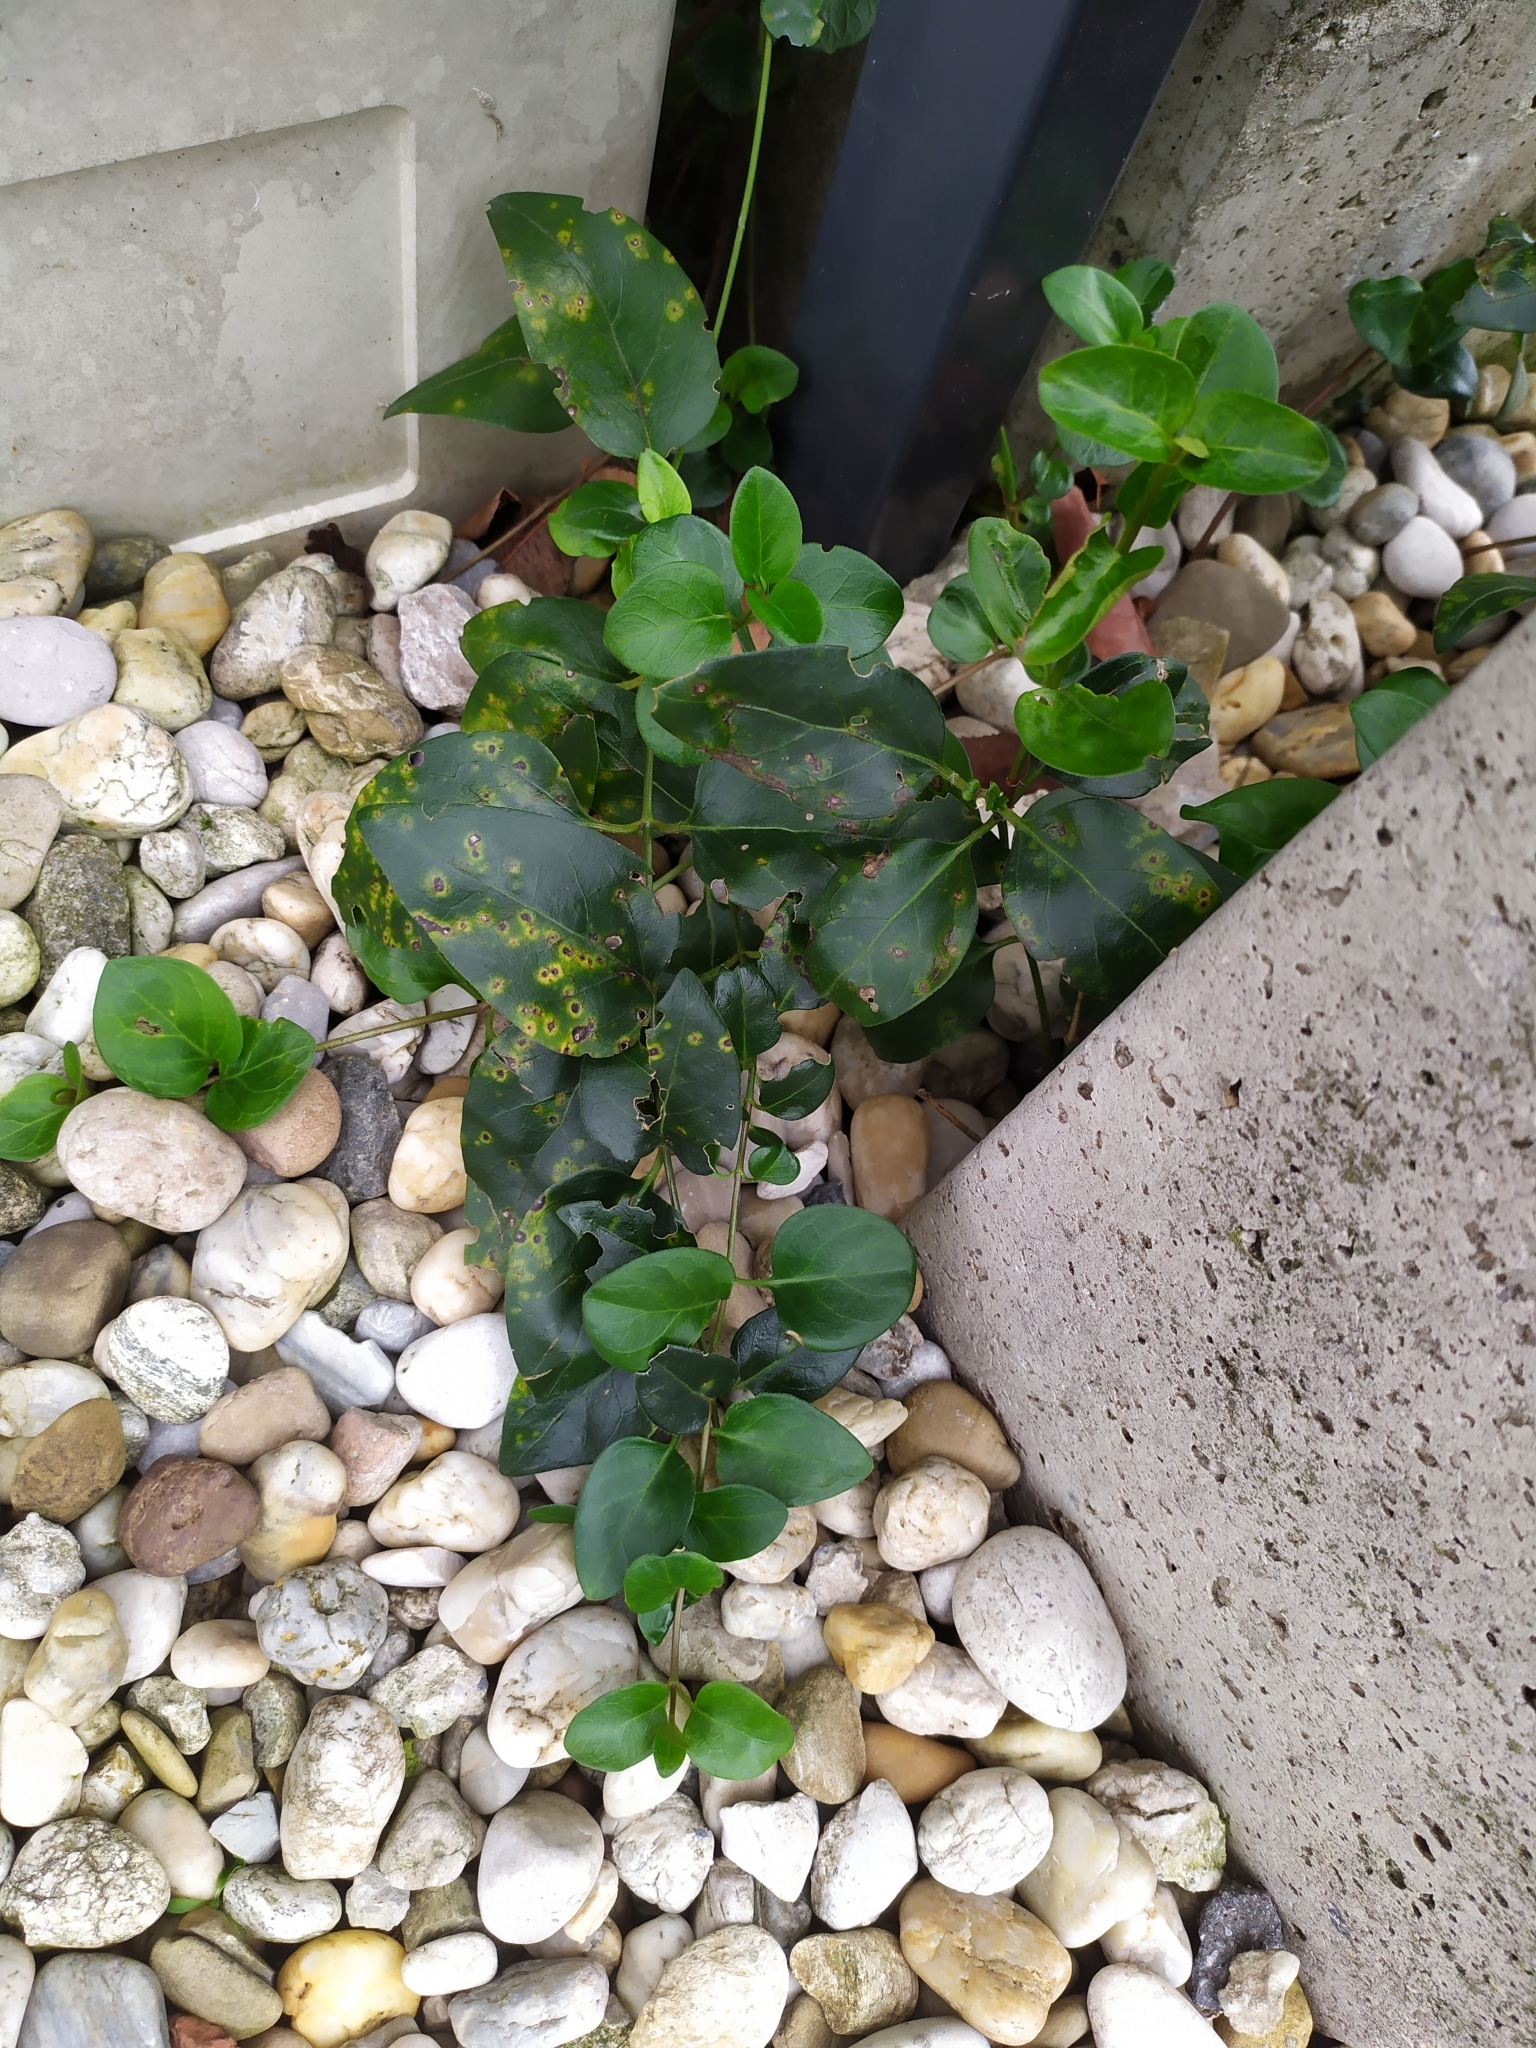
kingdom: Plantae
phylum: Tracheophyta
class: Magnoliopsida
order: Gentianales
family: Apocynaceae
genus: Vinca
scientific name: Vinca major
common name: Greater periwinkle
